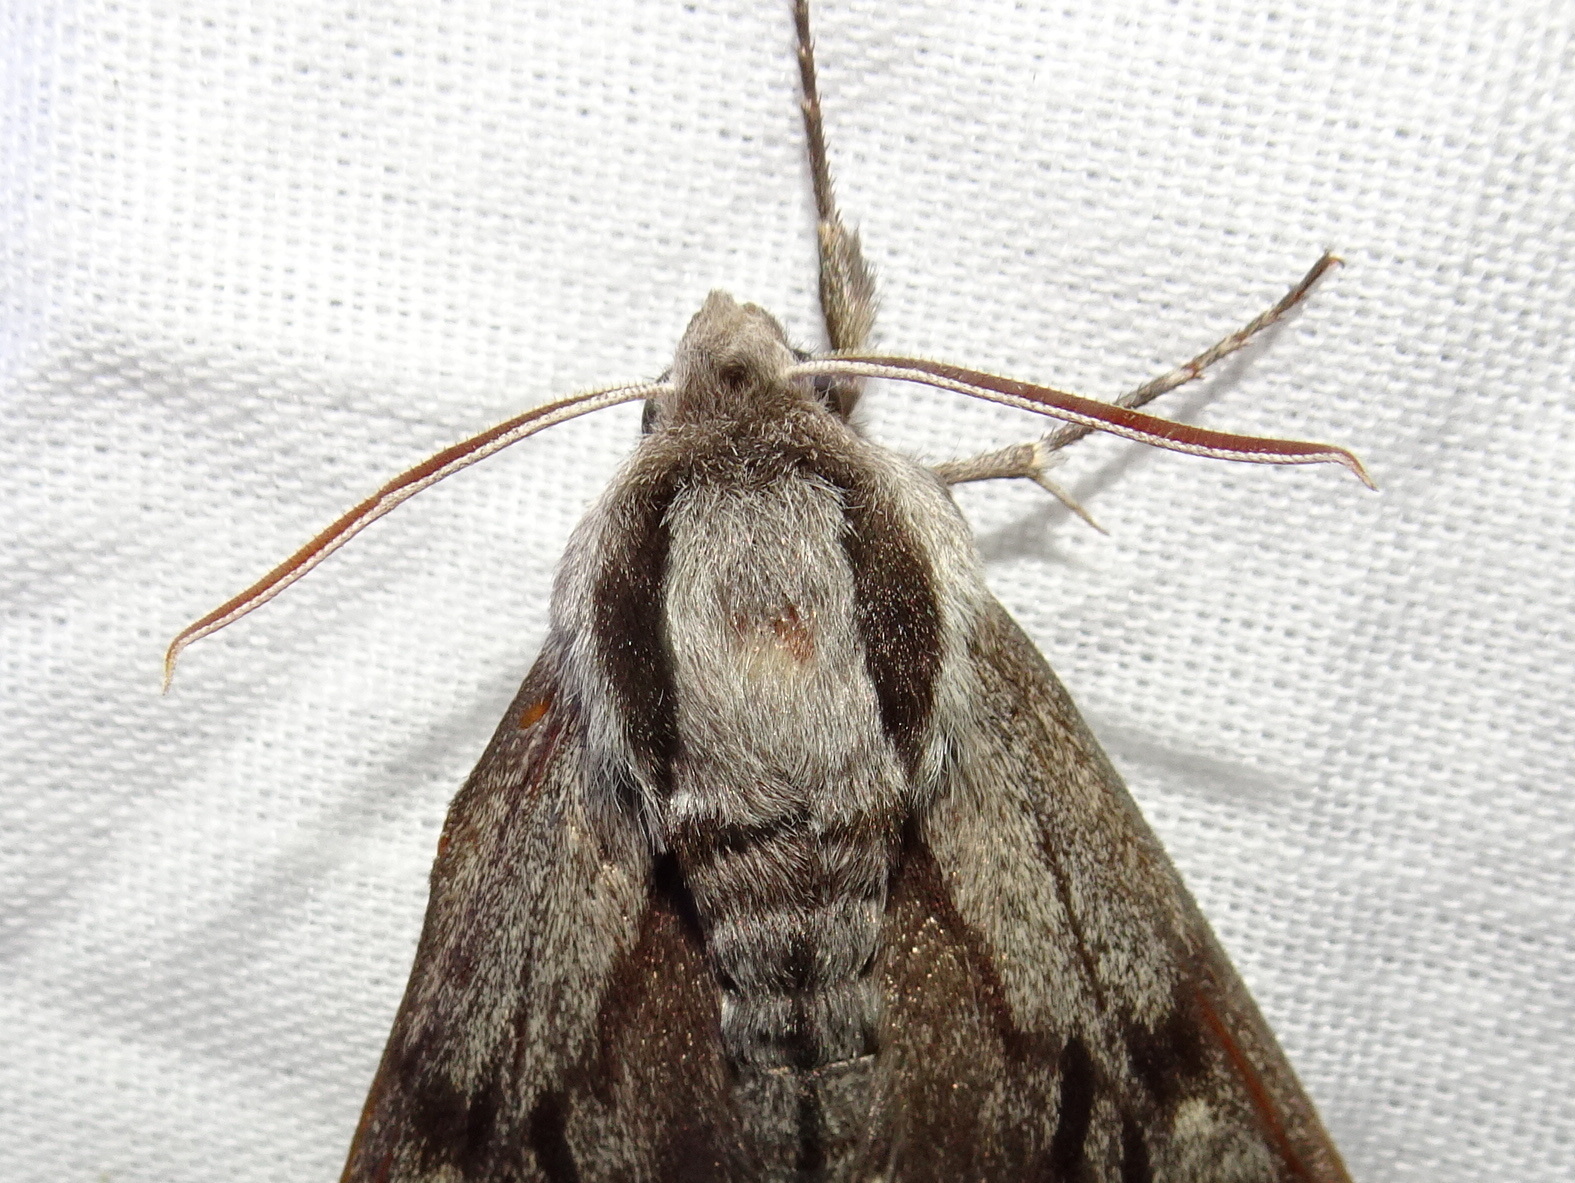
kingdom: Animalia
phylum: Arthropoda
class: Insecta
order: Lepidoptera
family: Sphingidae
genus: Sphinx
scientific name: Sphinx pinastri
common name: Pine hawk-moth
